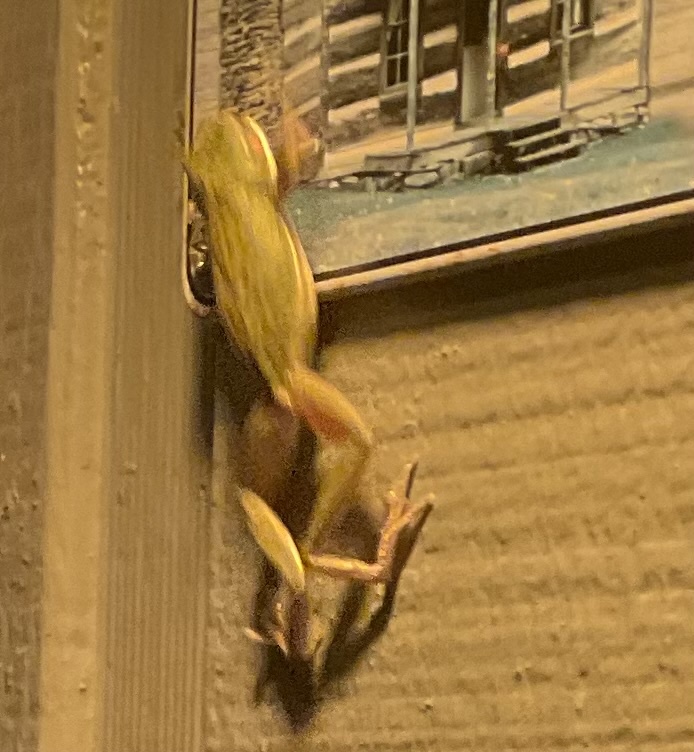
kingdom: Animalia
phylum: Chordata
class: Amphibia
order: Anura
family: Hylidae
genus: Dryophytes
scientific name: Dryophytes squirellus
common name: Squirrel treefrog
